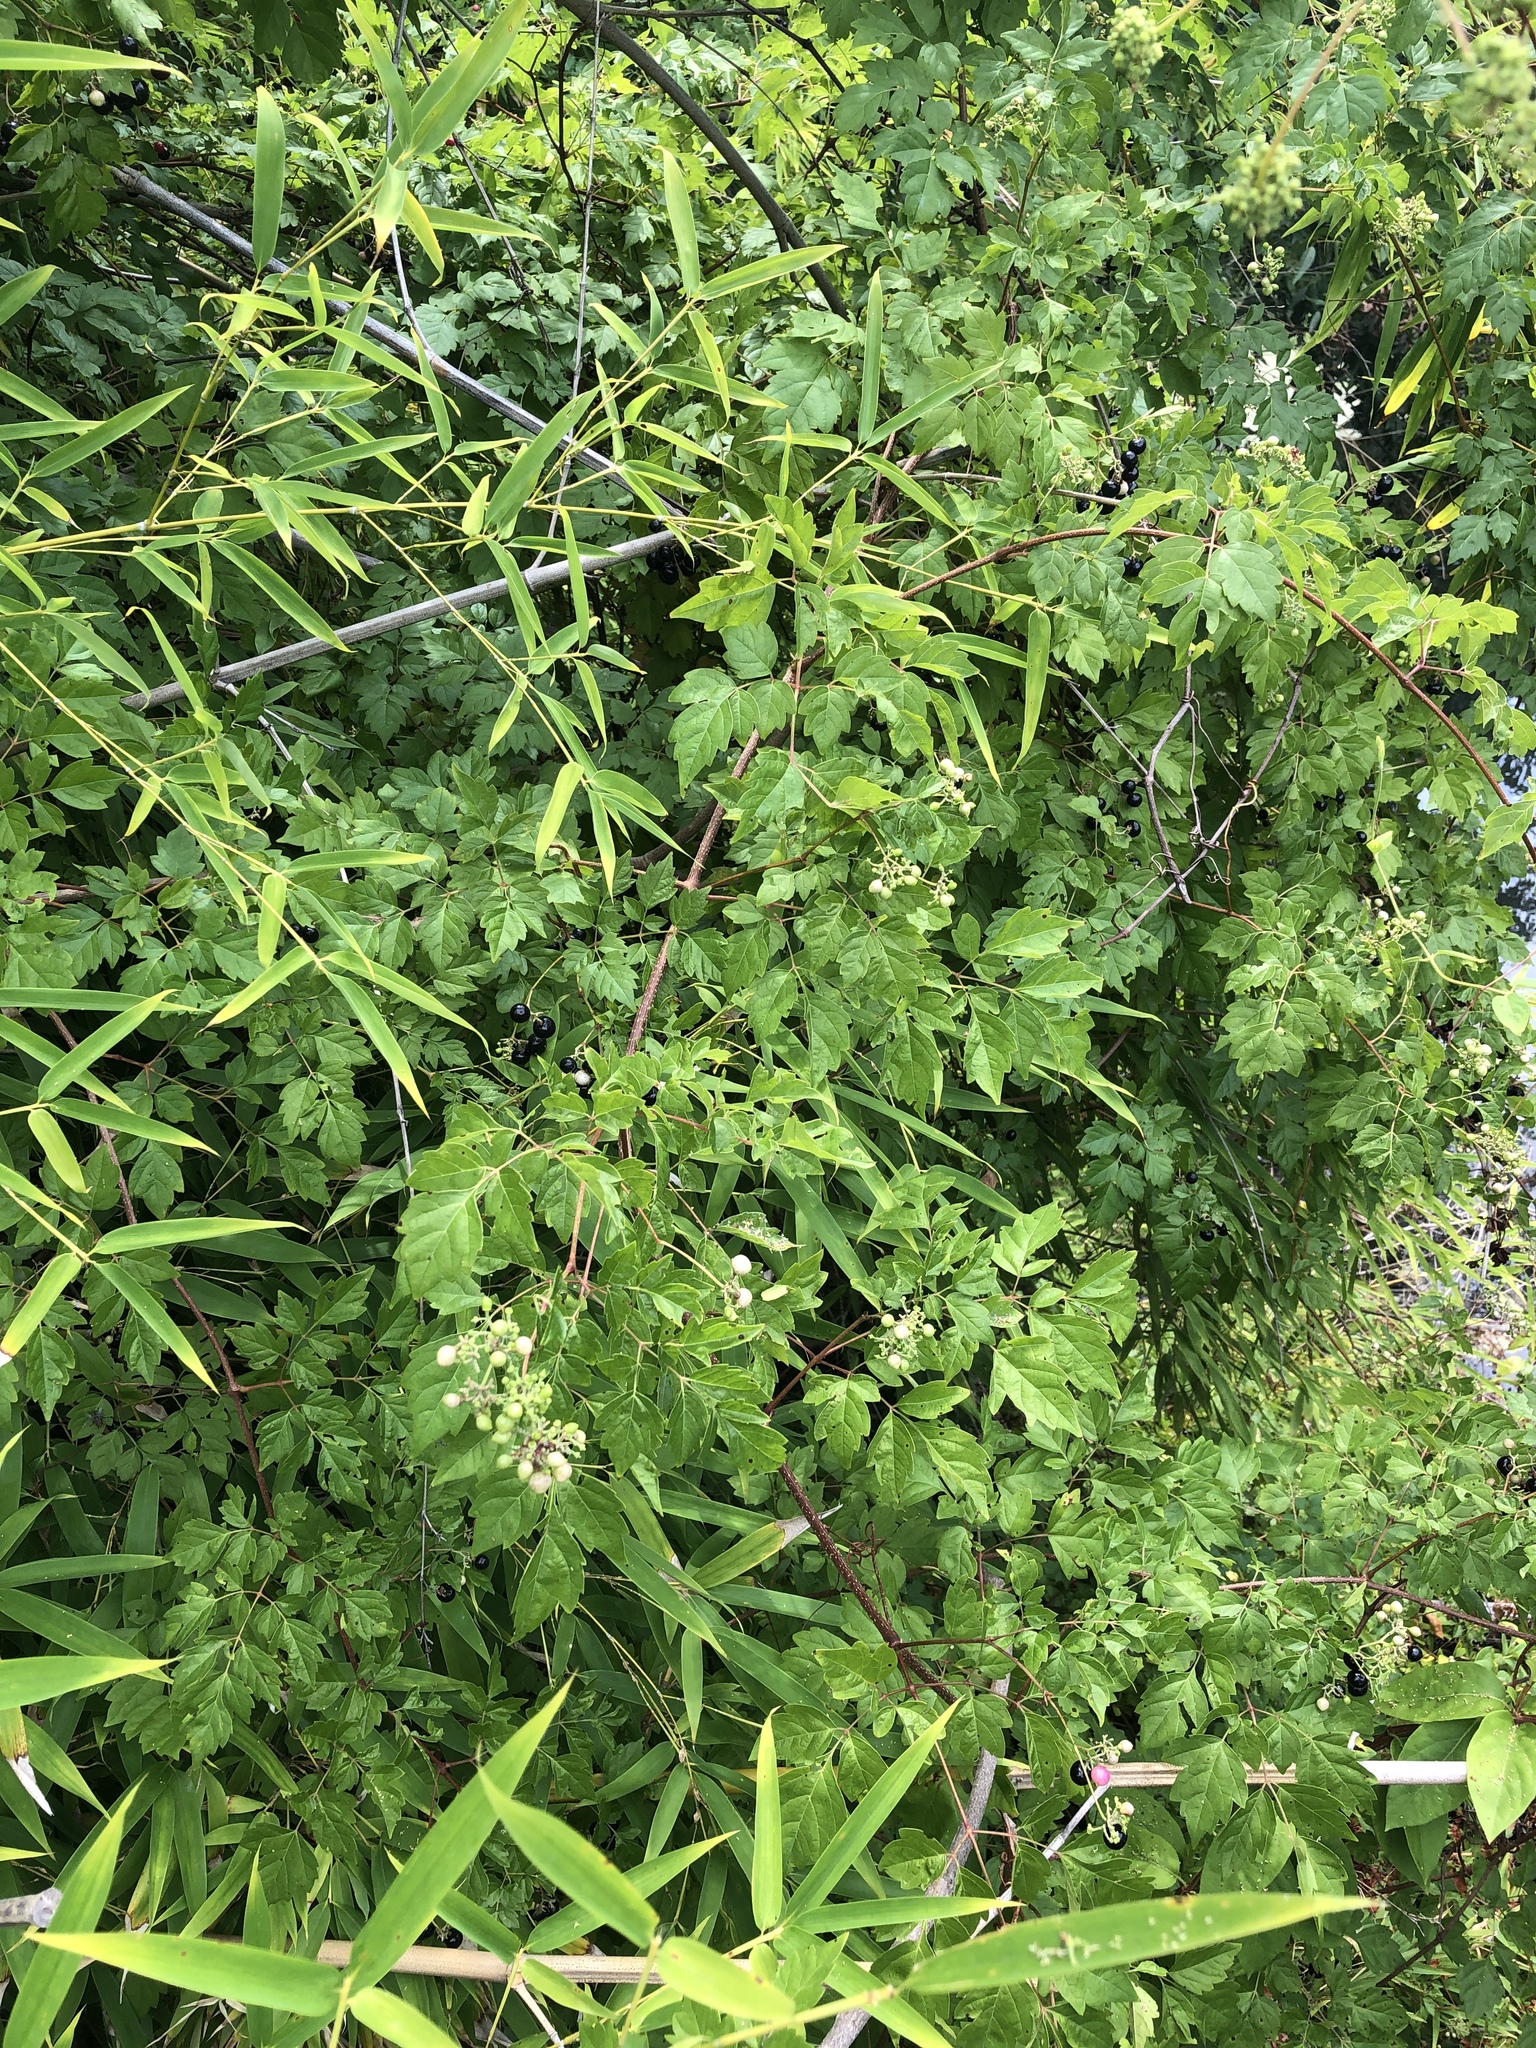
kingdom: Plantae
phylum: Tracheophyta
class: Magnoliopsida
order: Vitales
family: Vitaceae
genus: Nekemias
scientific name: Nekemias arborea
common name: Peppervine
